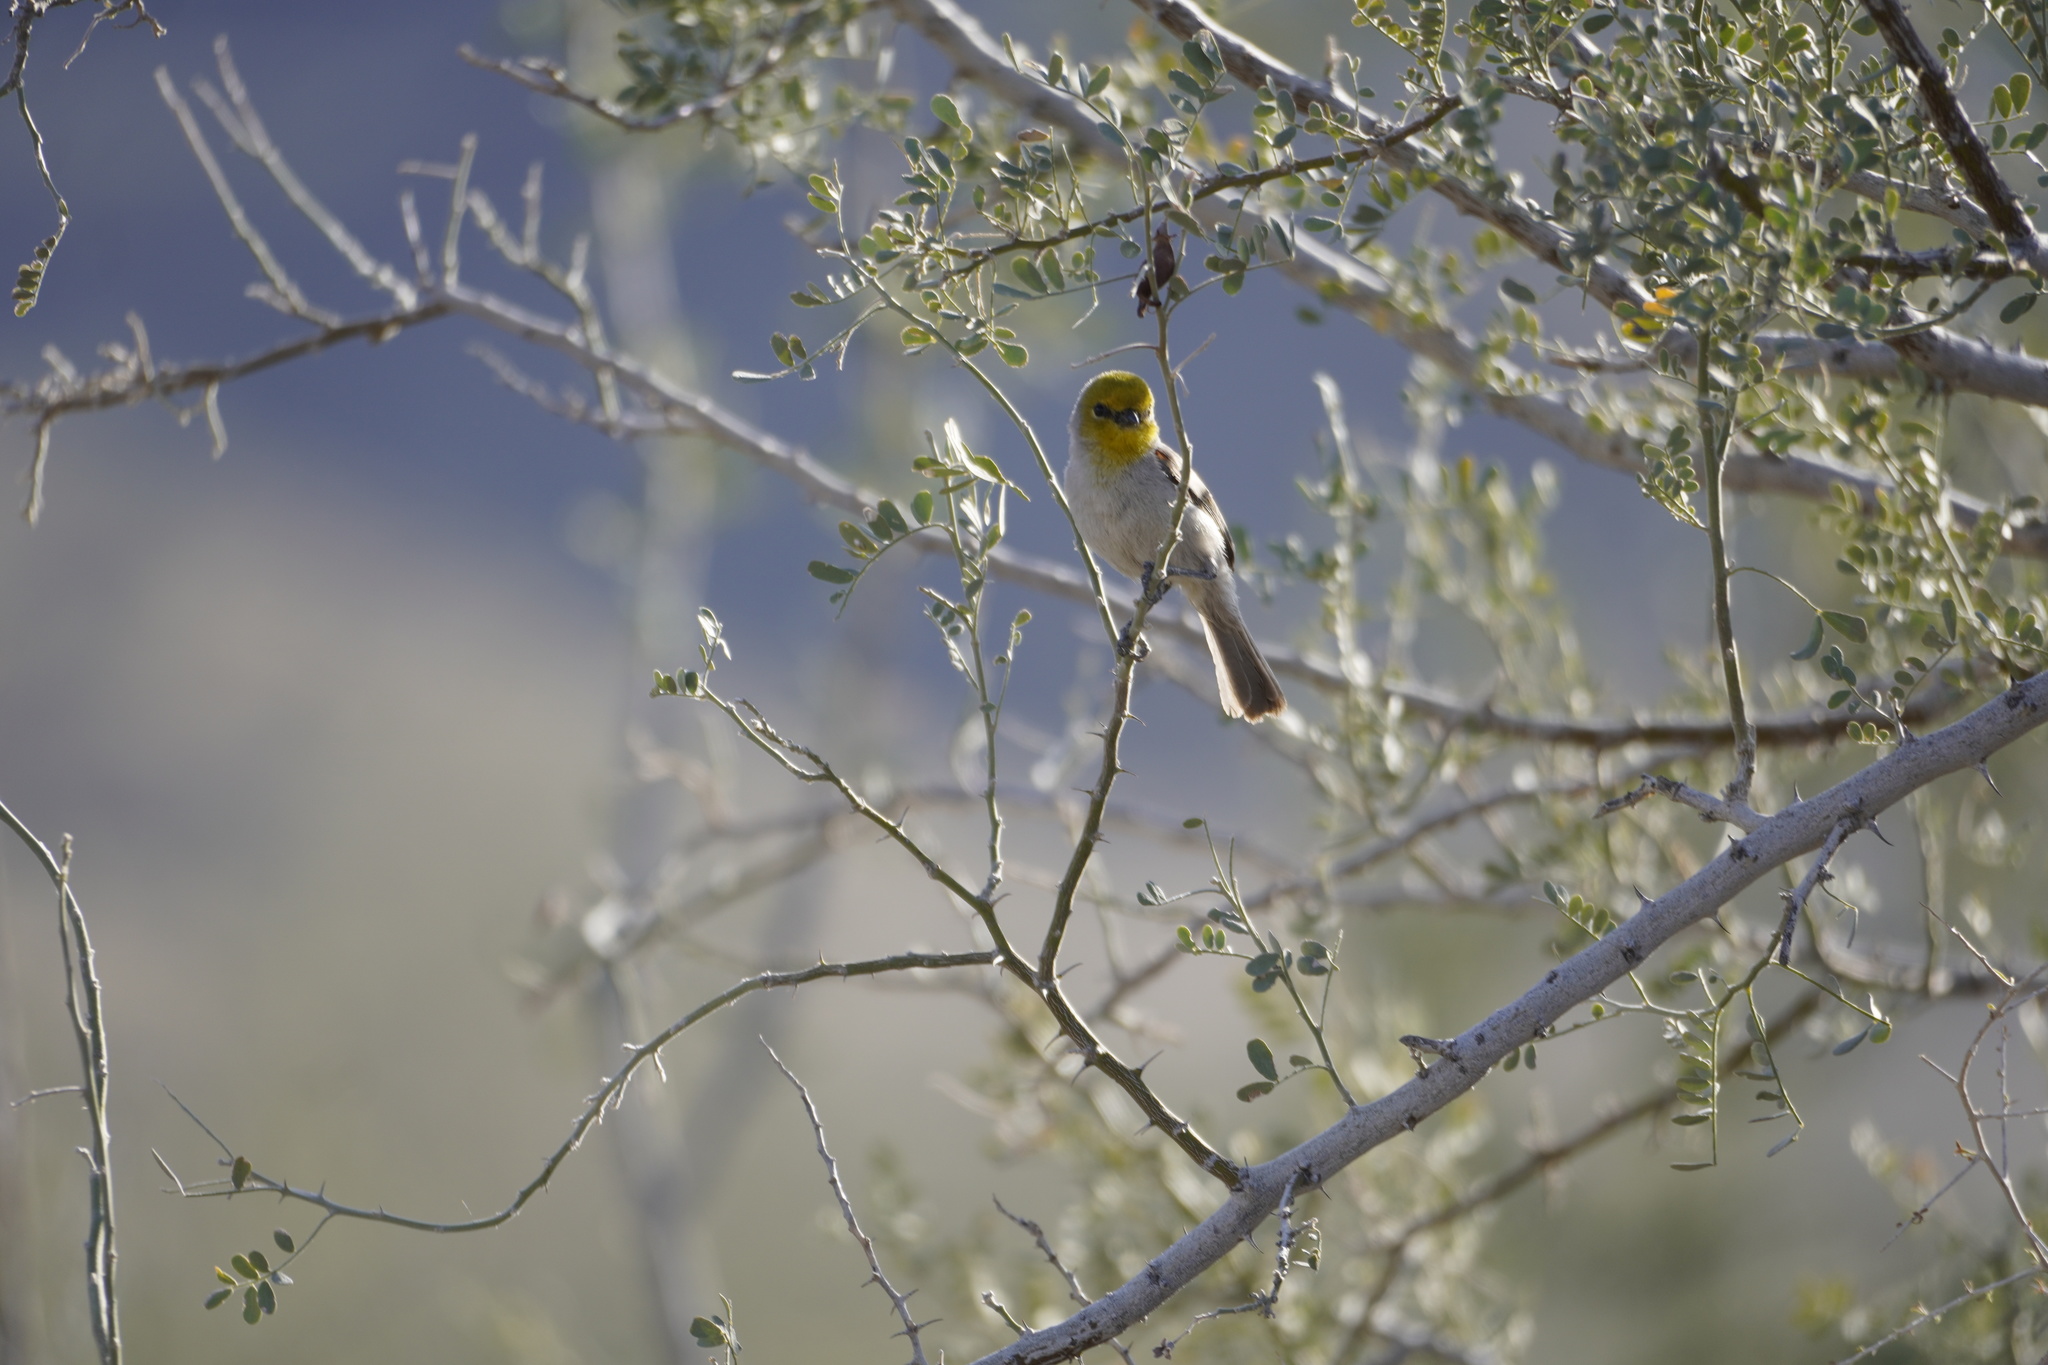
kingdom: Animalia
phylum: Chordata
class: Aves
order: Passeriformes
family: Remizidae
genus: Auriparus
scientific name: Auriparus flaviceps
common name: Verdin
